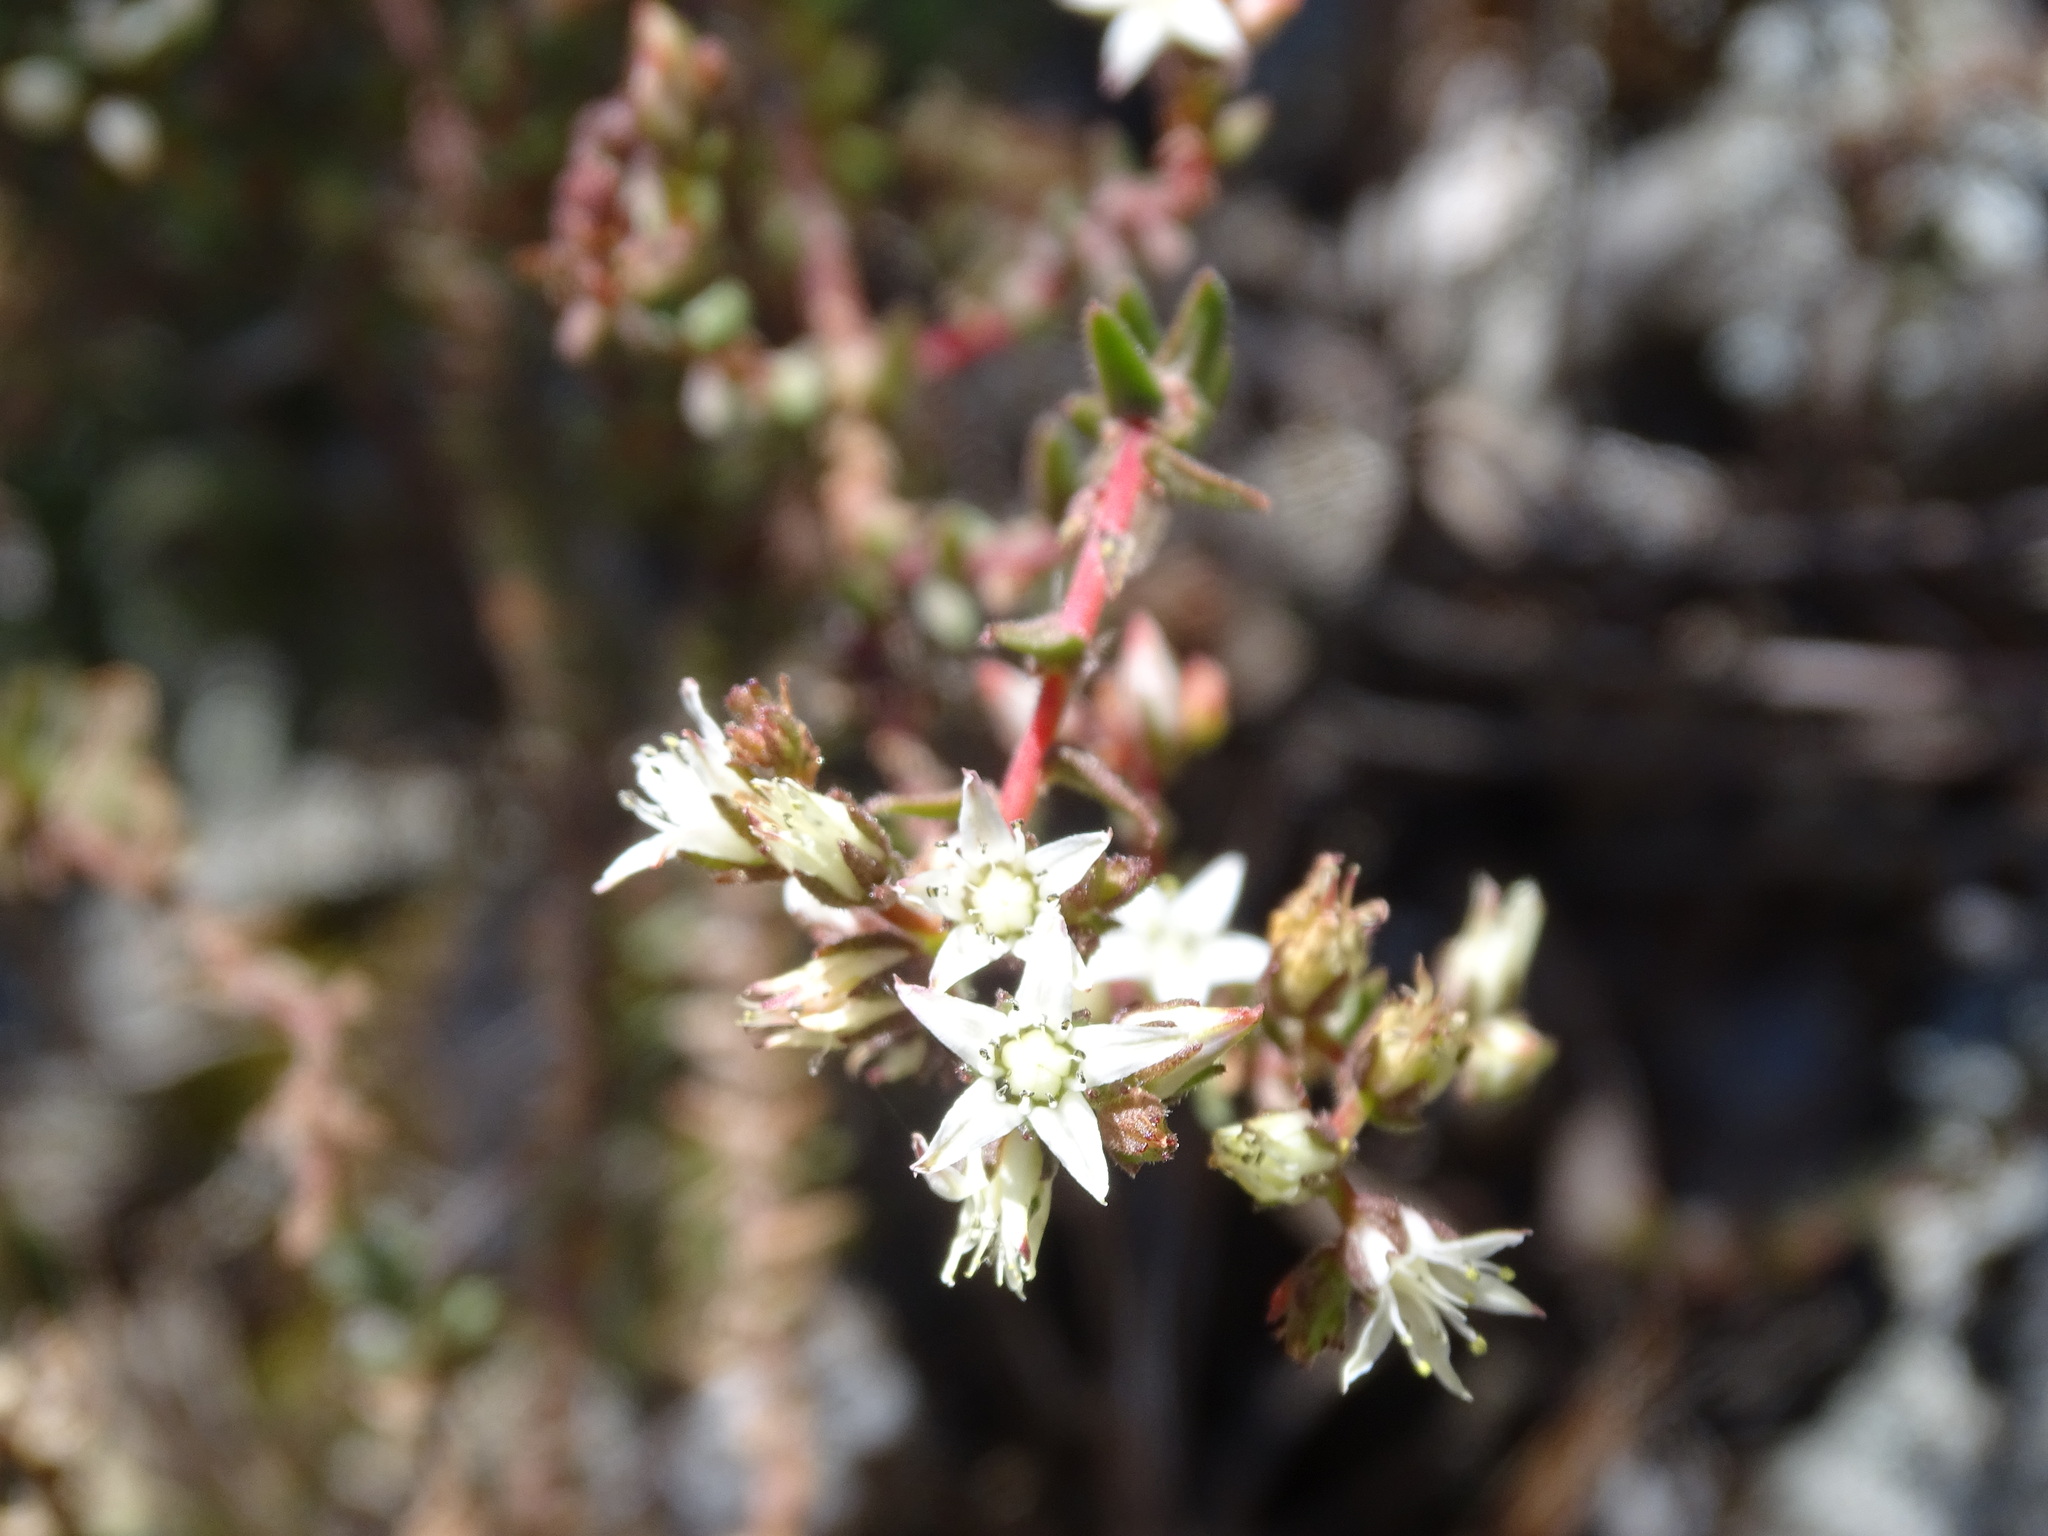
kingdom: Plantae
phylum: Tracheophyta
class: Magnoliopsida
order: Saxifragales
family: Crassulaceae
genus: Sedum
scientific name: Sedum goldmanii
